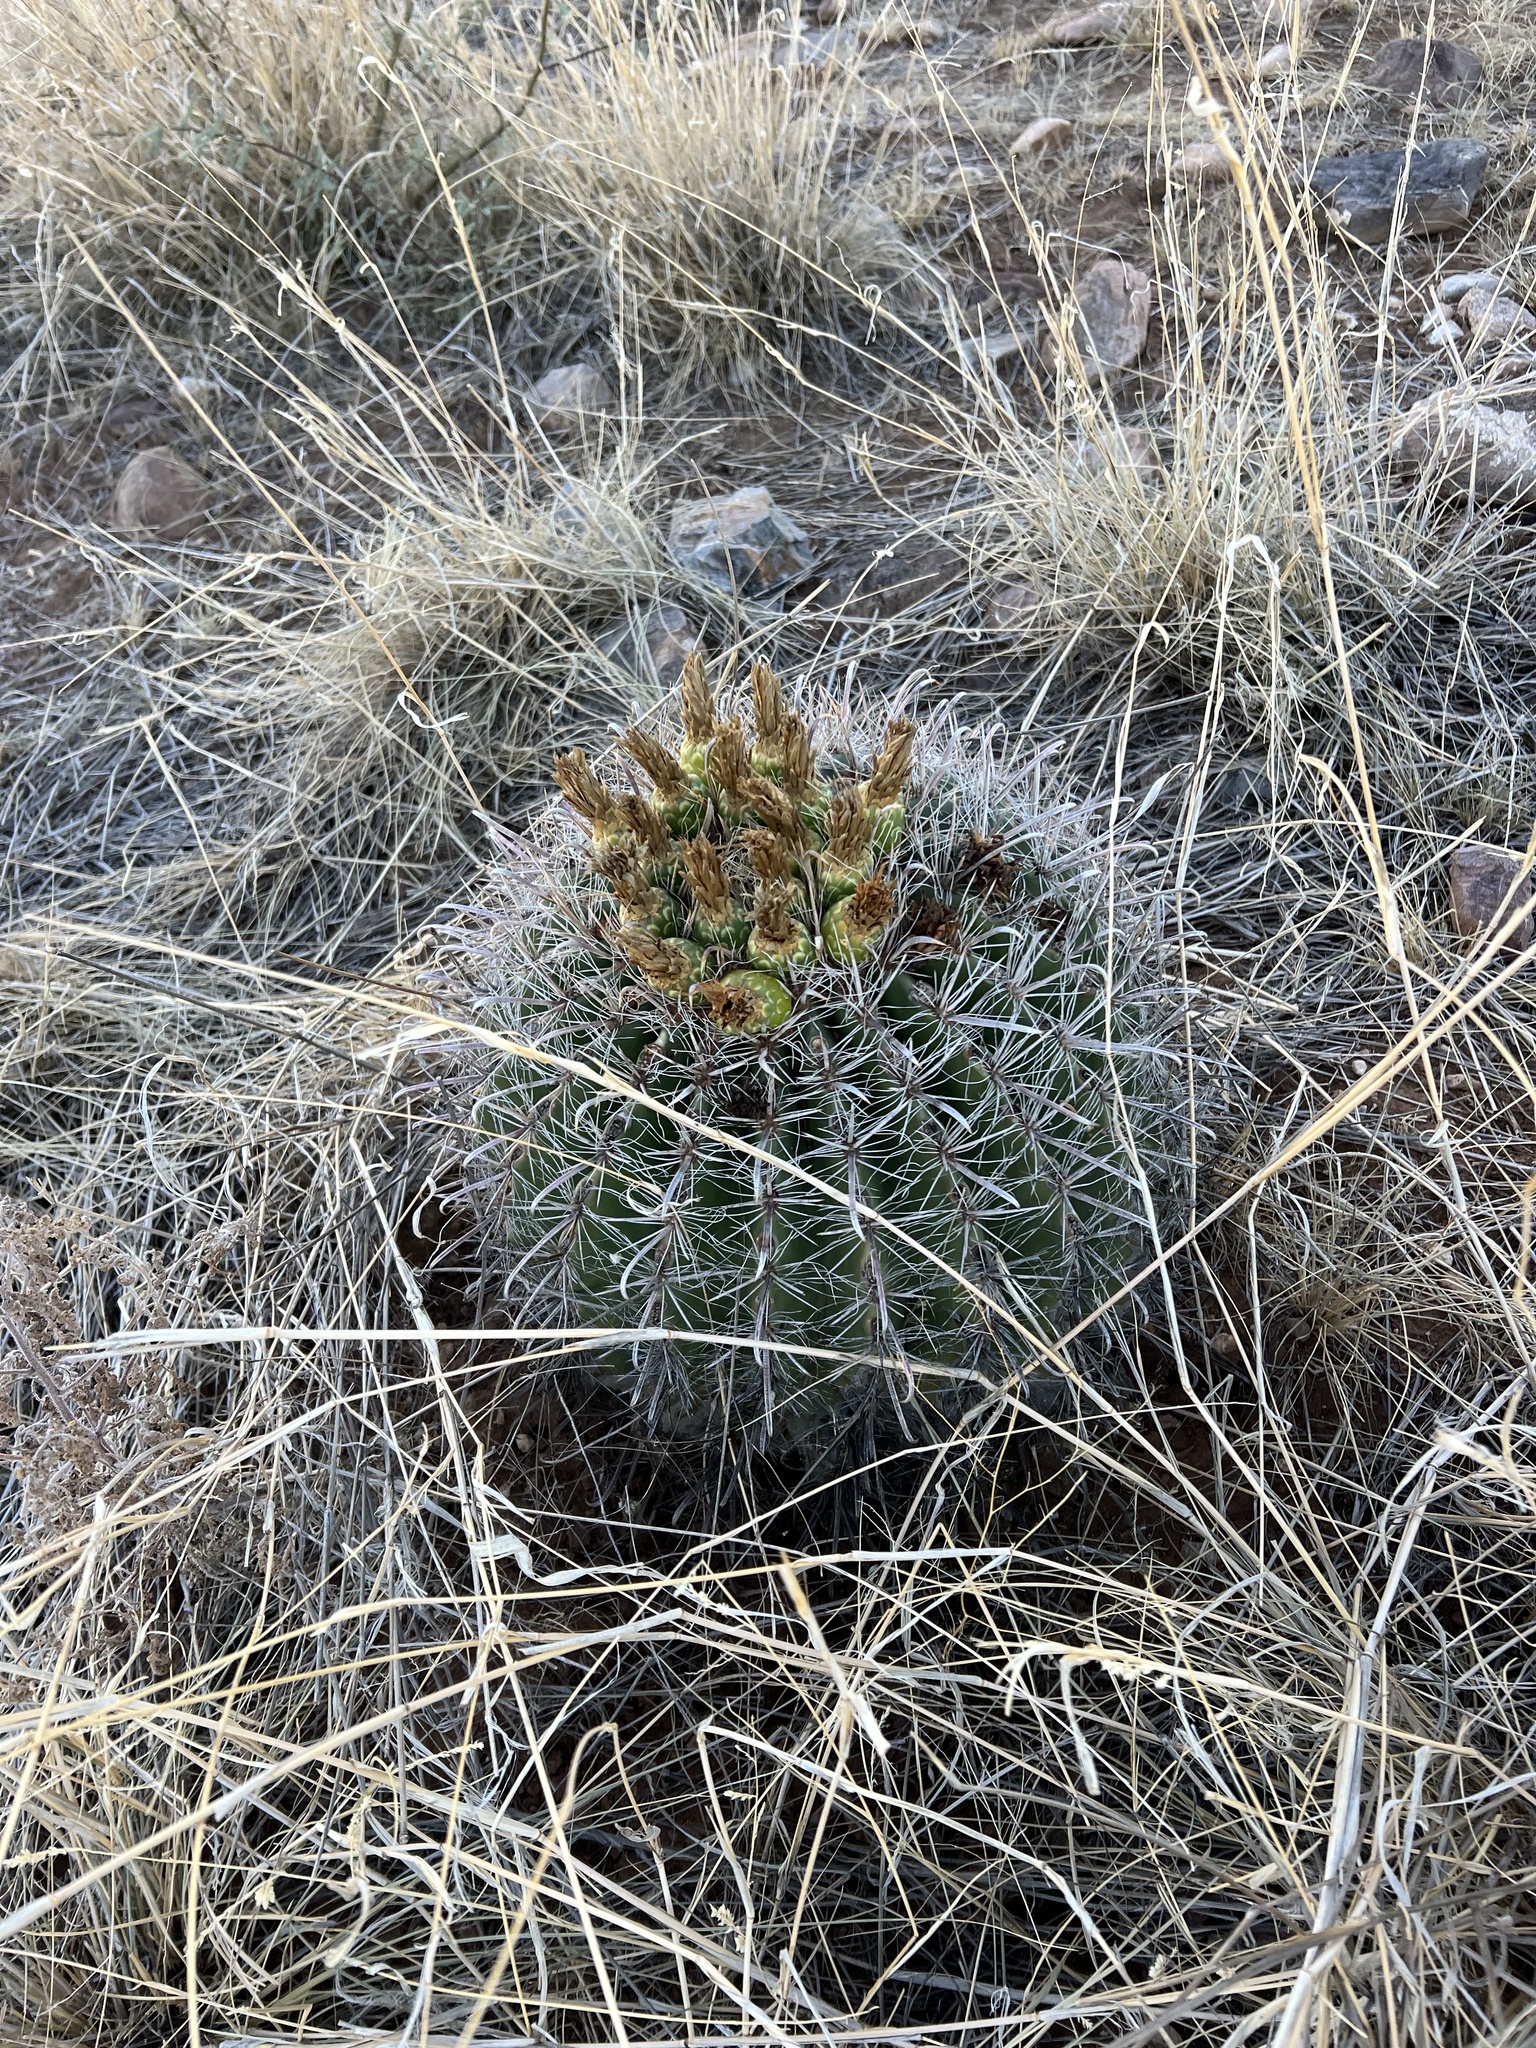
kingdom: Plantae
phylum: Tracheophyta
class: Magnoliopsida
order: Caryophyllales
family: Cactaceae
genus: Ferocactus
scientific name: Ferocactus wislizeni
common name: Candy barrel cactus
